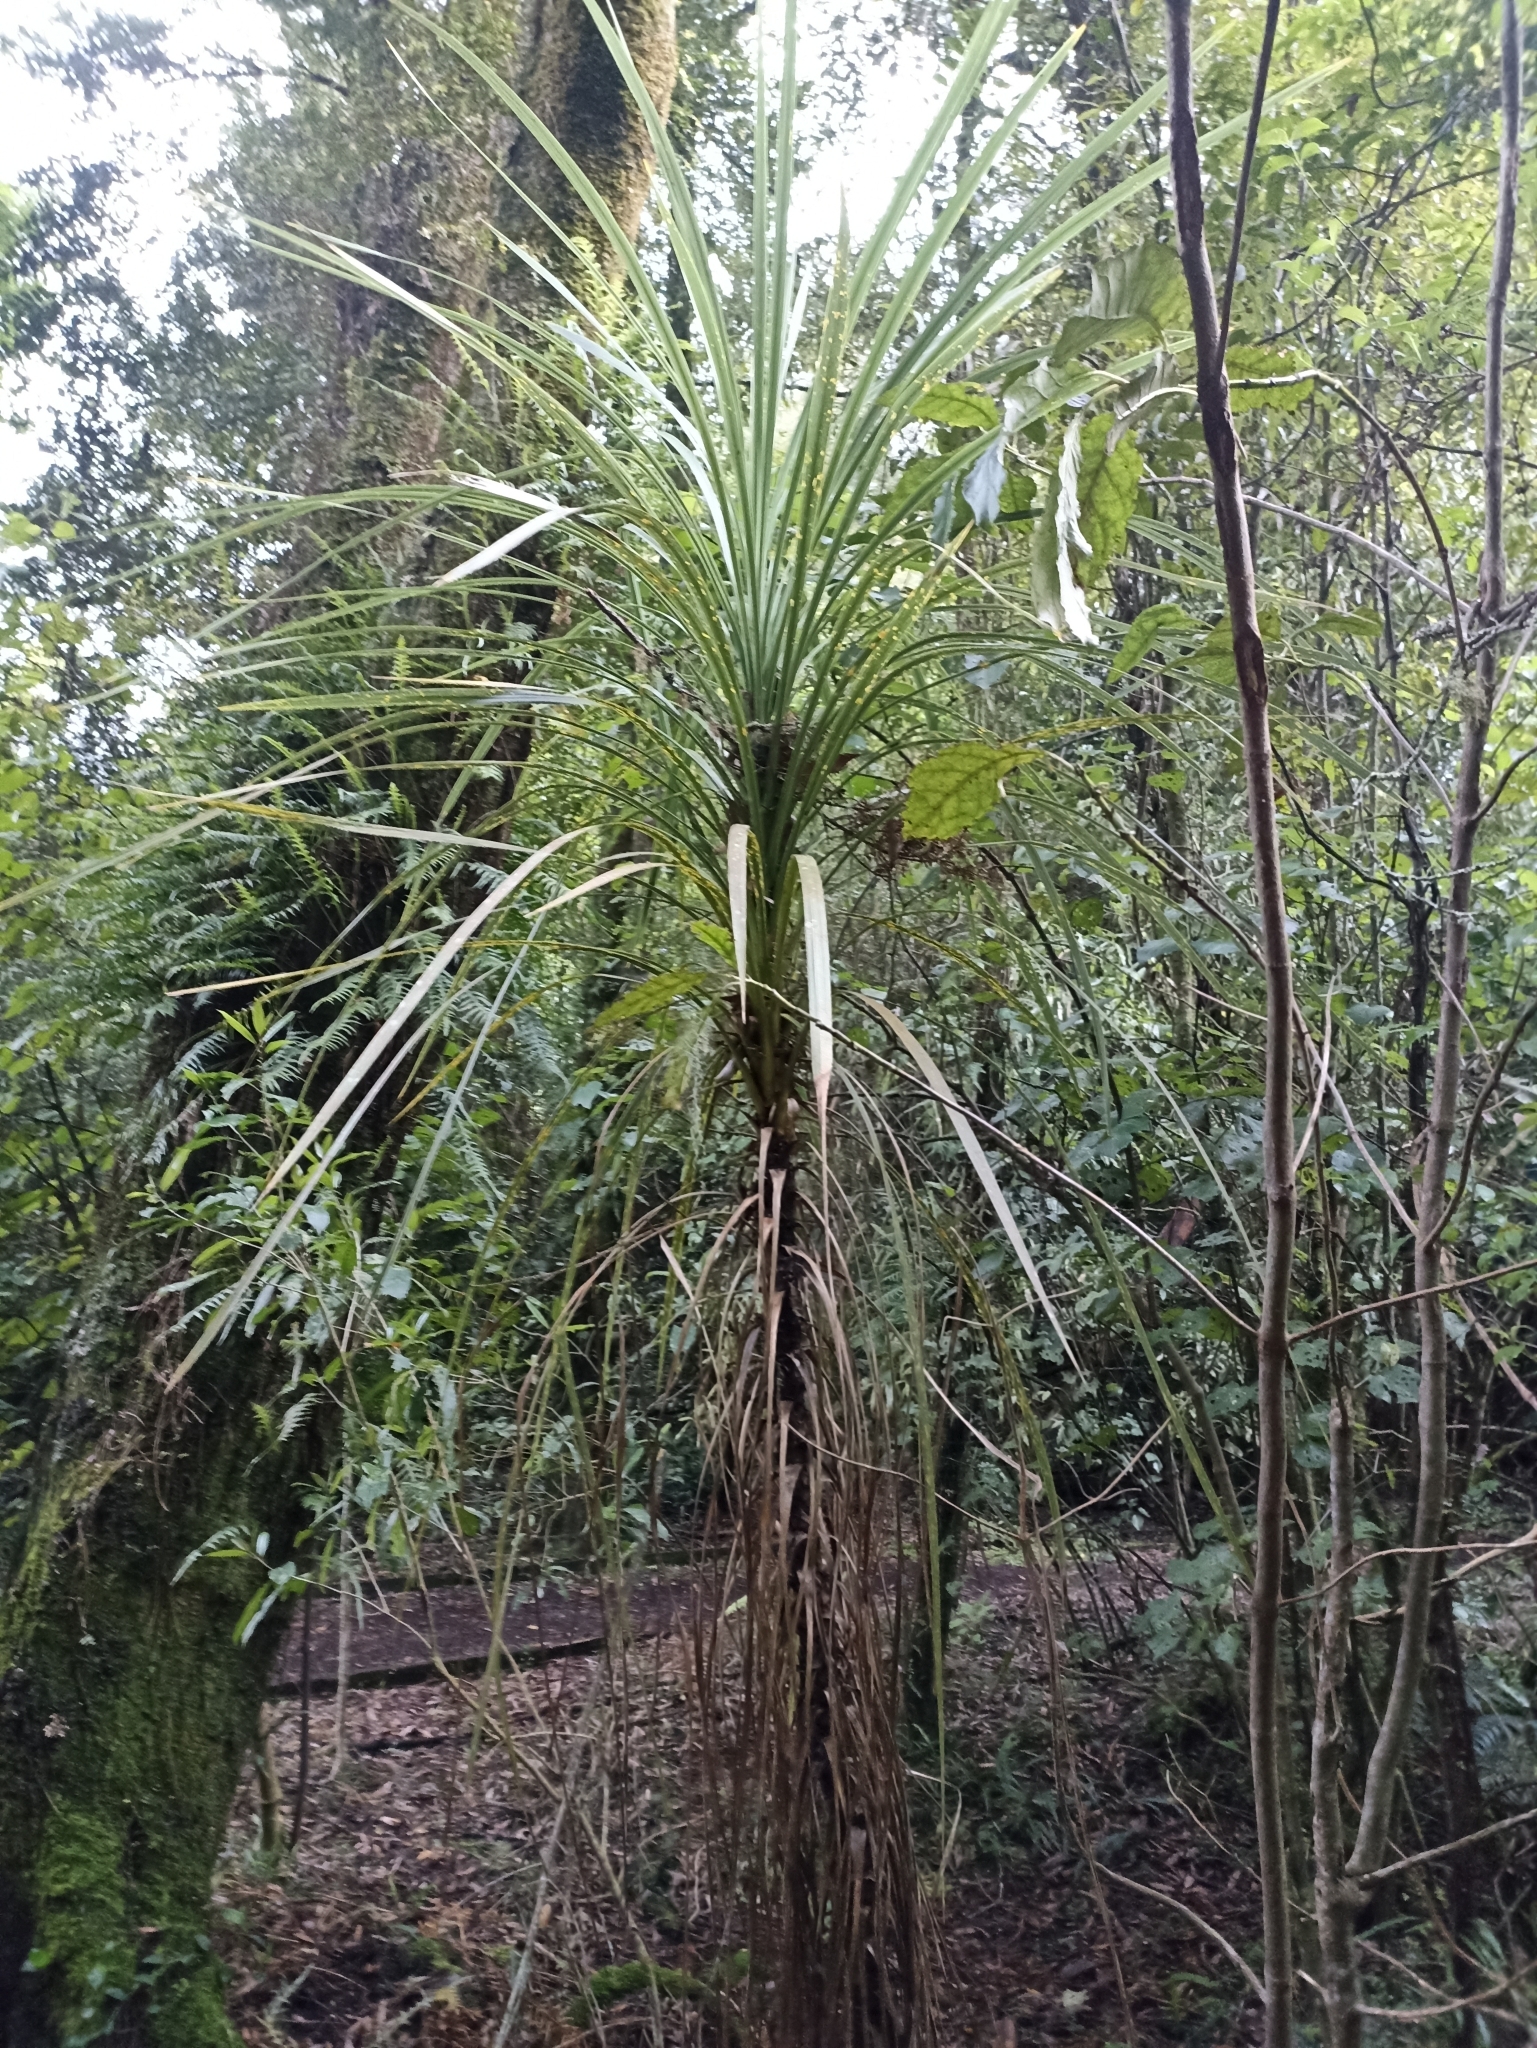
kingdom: Plantae
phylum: Tracheophyta
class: Liliopsida
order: Asparagales
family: Asparagaceae
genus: Cordyline
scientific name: Cordyline australis
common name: Cabbage-palm
